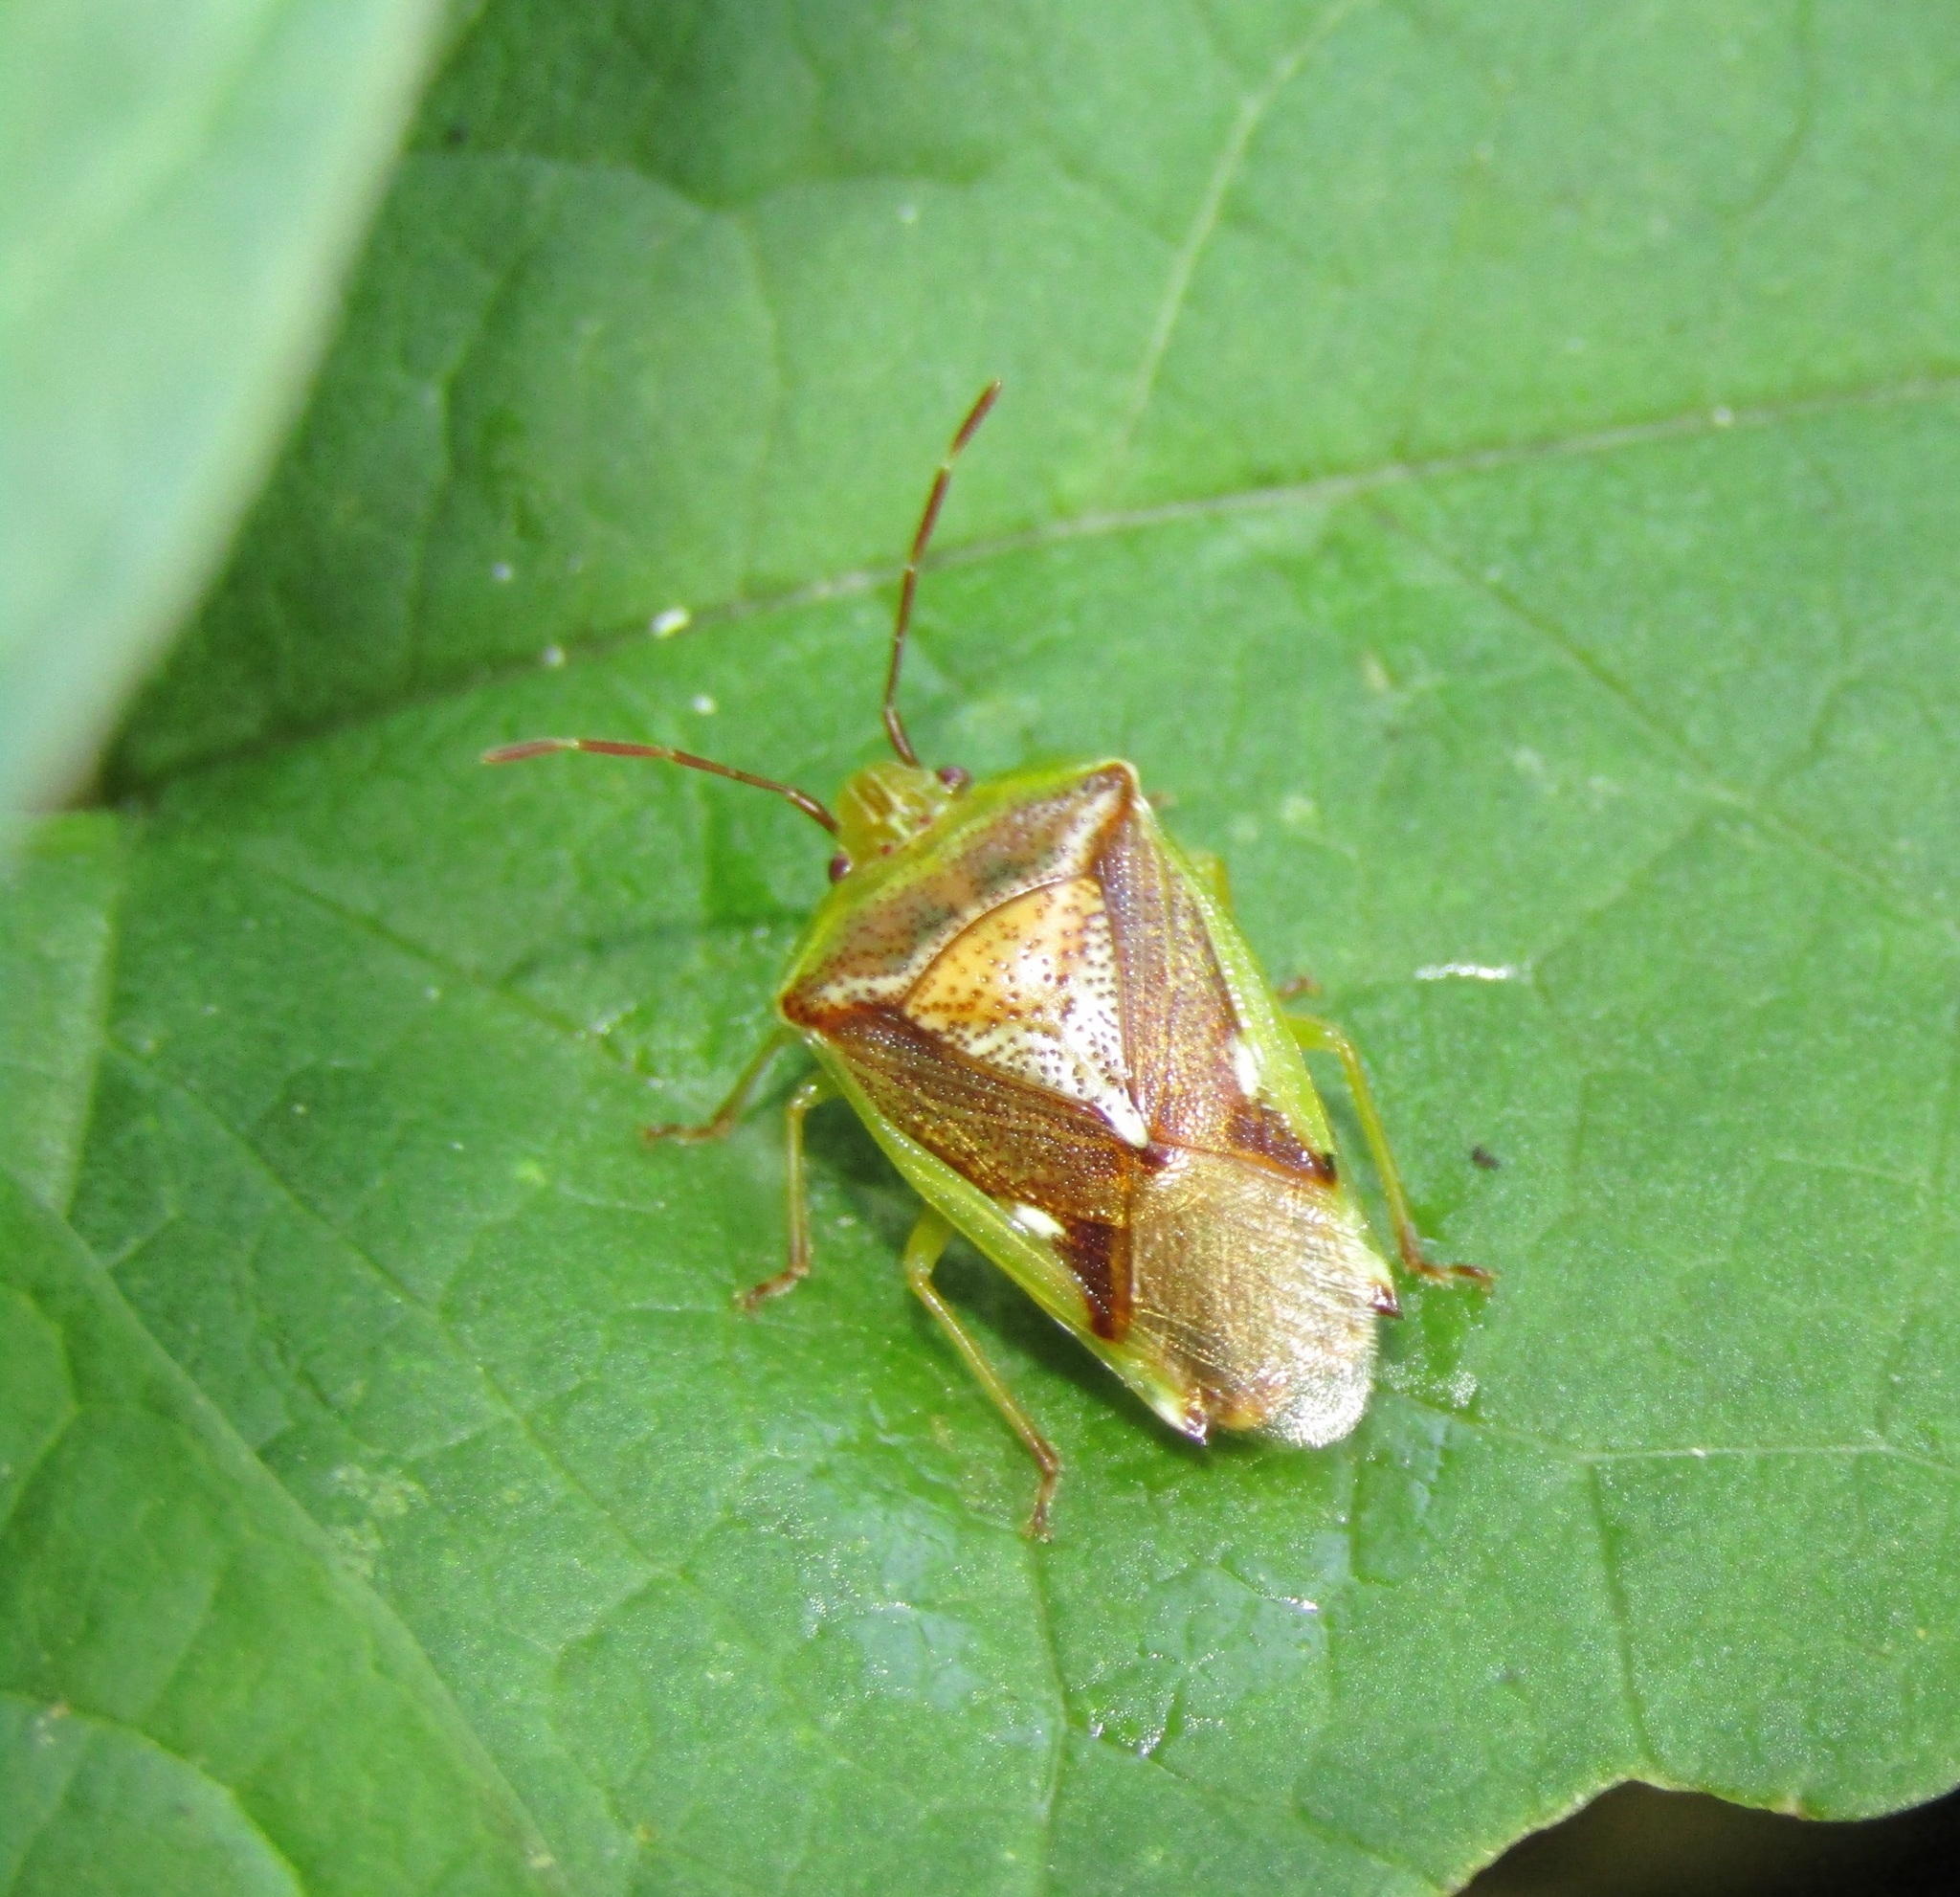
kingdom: Animalia
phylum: Arthropoda
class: Insecta
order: Hemiptera
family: Acanthosomatidae
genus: Oncacontias
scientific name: Oncacontias vittatus
